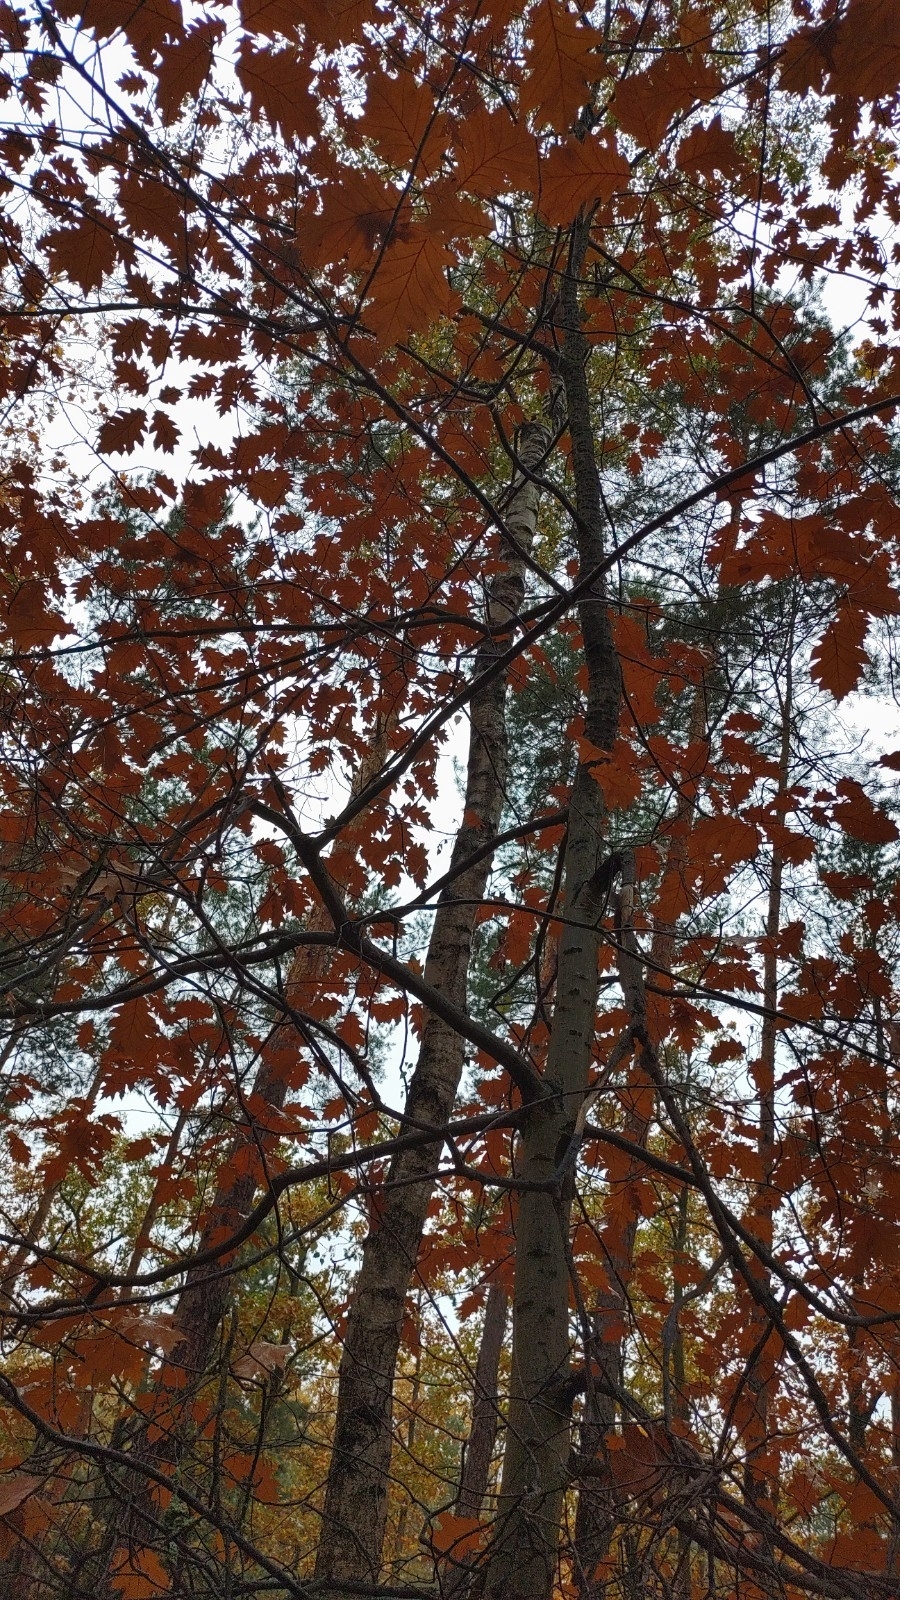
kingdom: Plantae
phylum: Tracheophyta
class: Magnoliopsida
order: Fagales
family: Fagaceae
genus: Quercus
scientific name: Quercus rubra
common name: Red oak
